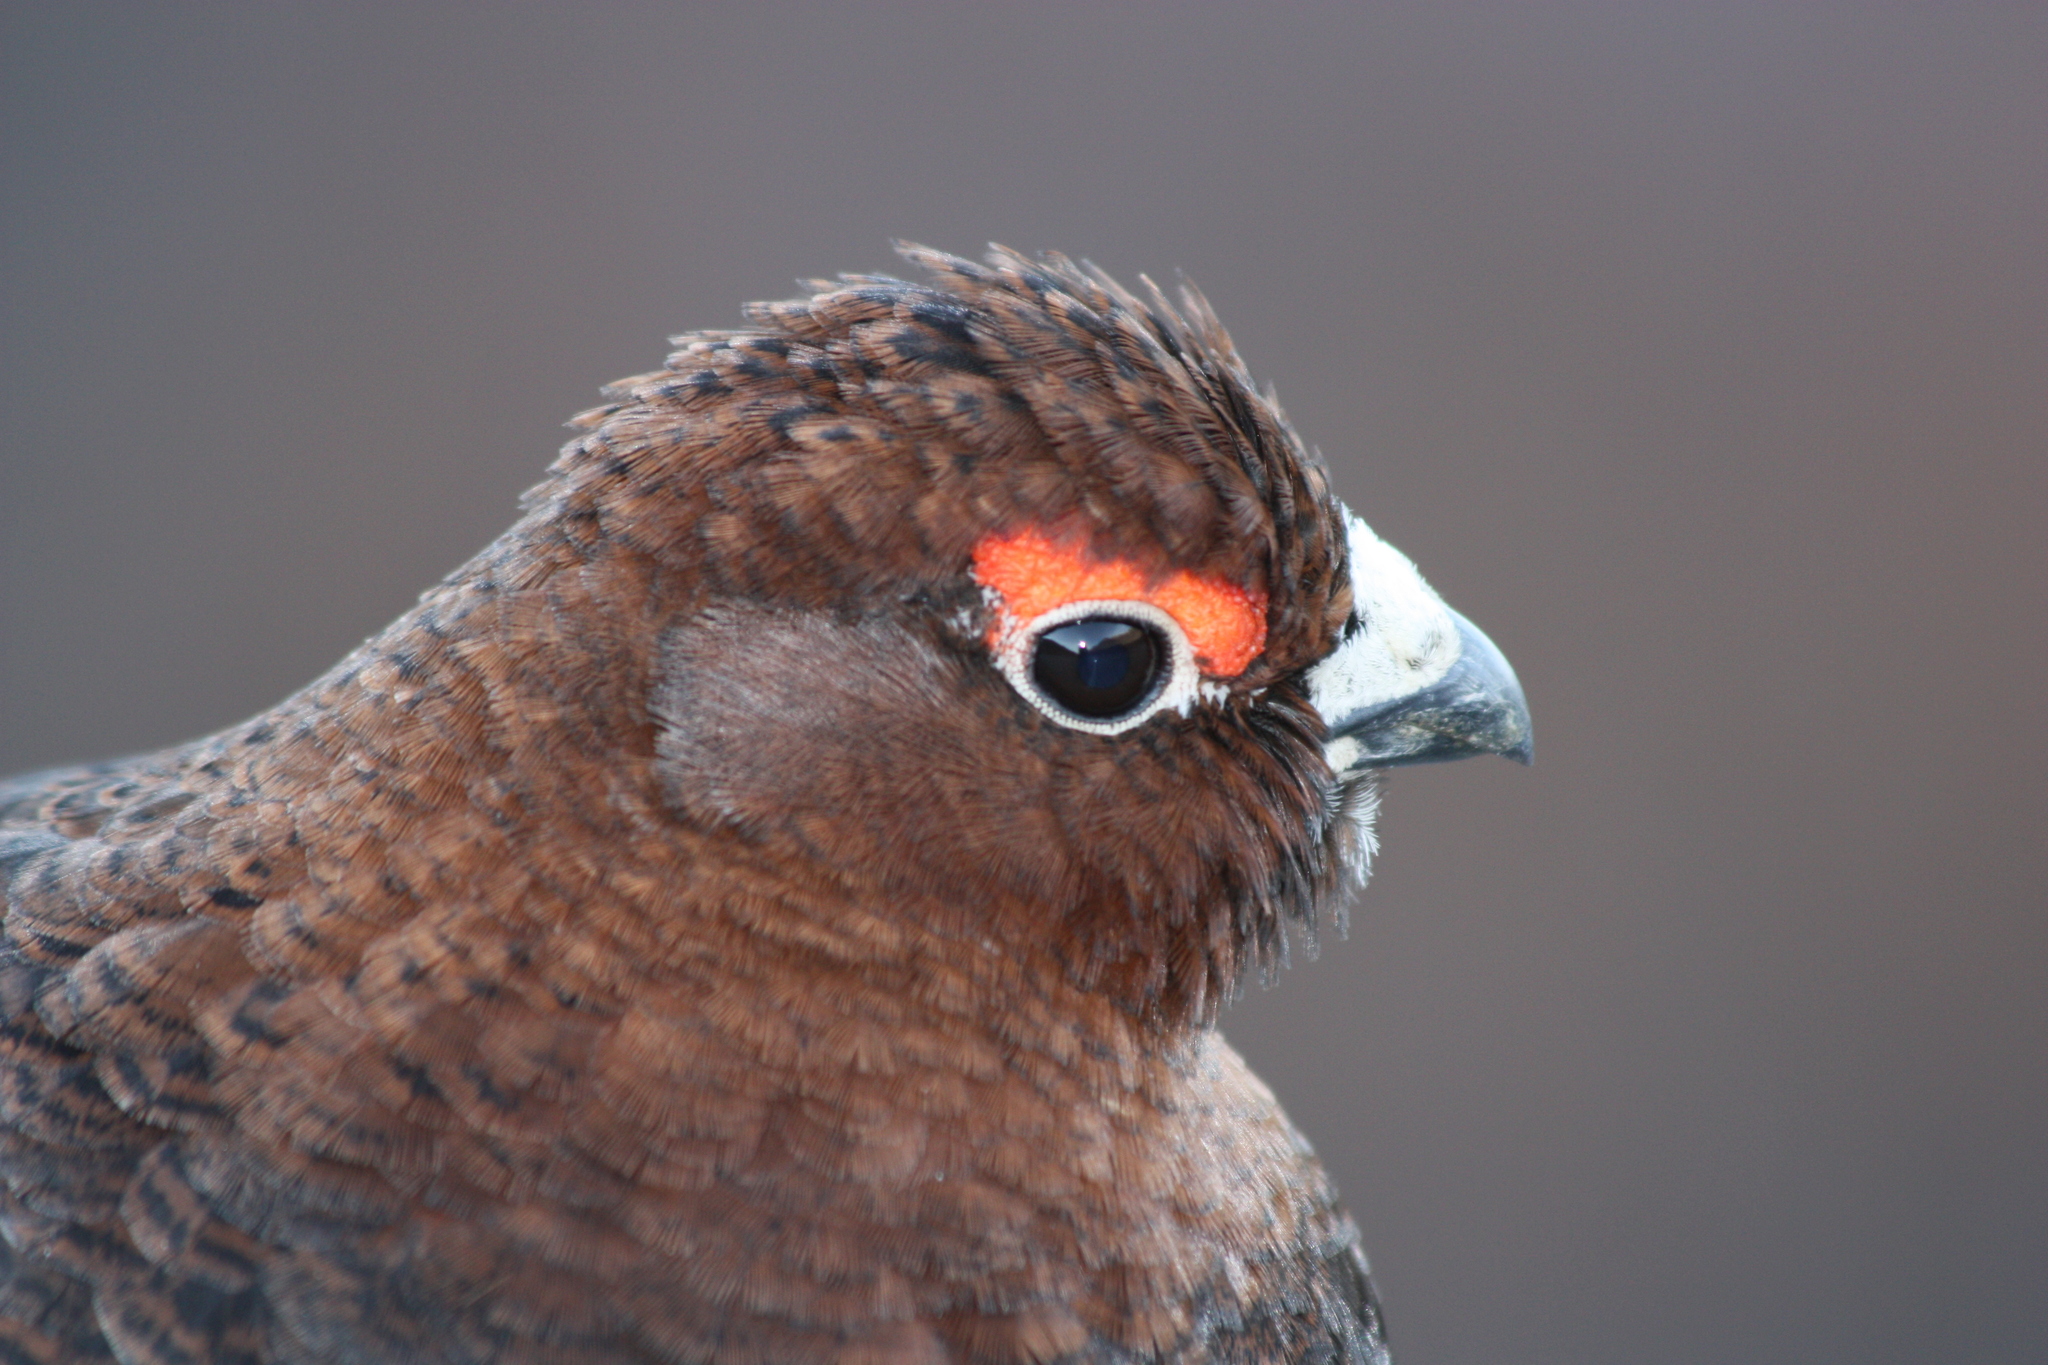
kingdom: Animalia
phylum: Chordata
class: Aves
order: Galliformes
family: Phasianidae
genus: Lagopus
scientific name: Lagopus lagopus
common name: Willow ptarmigan
